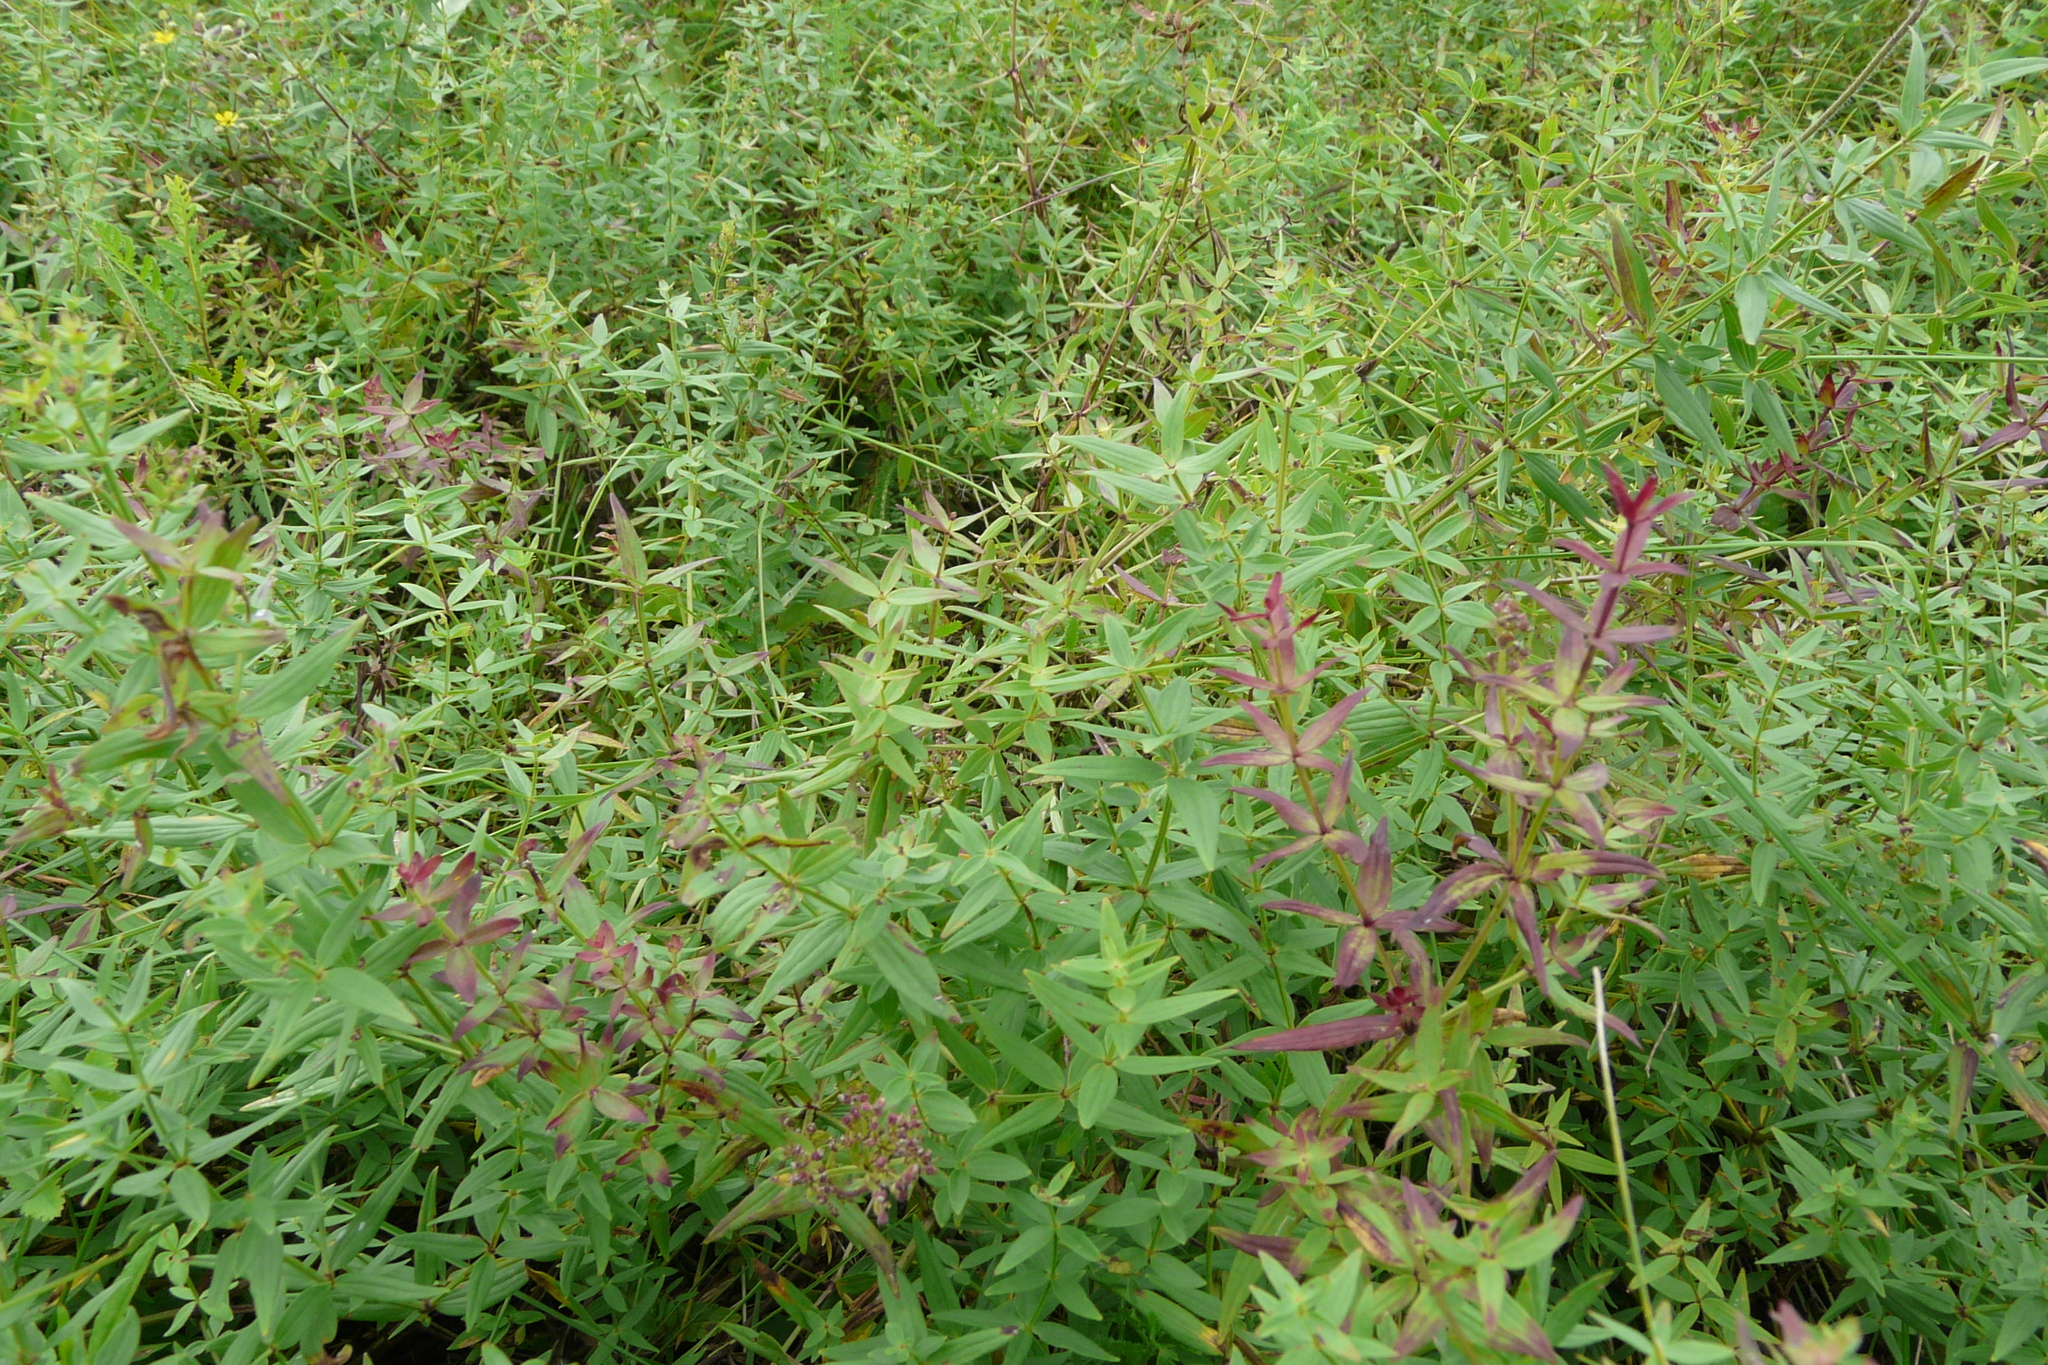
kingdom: Plantae
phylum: Tracheophyta
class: Magnoliopsida
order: Gentianales
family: Rubiaceae
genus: Galium
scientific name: Galium boreale
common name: Northern bedstraw
